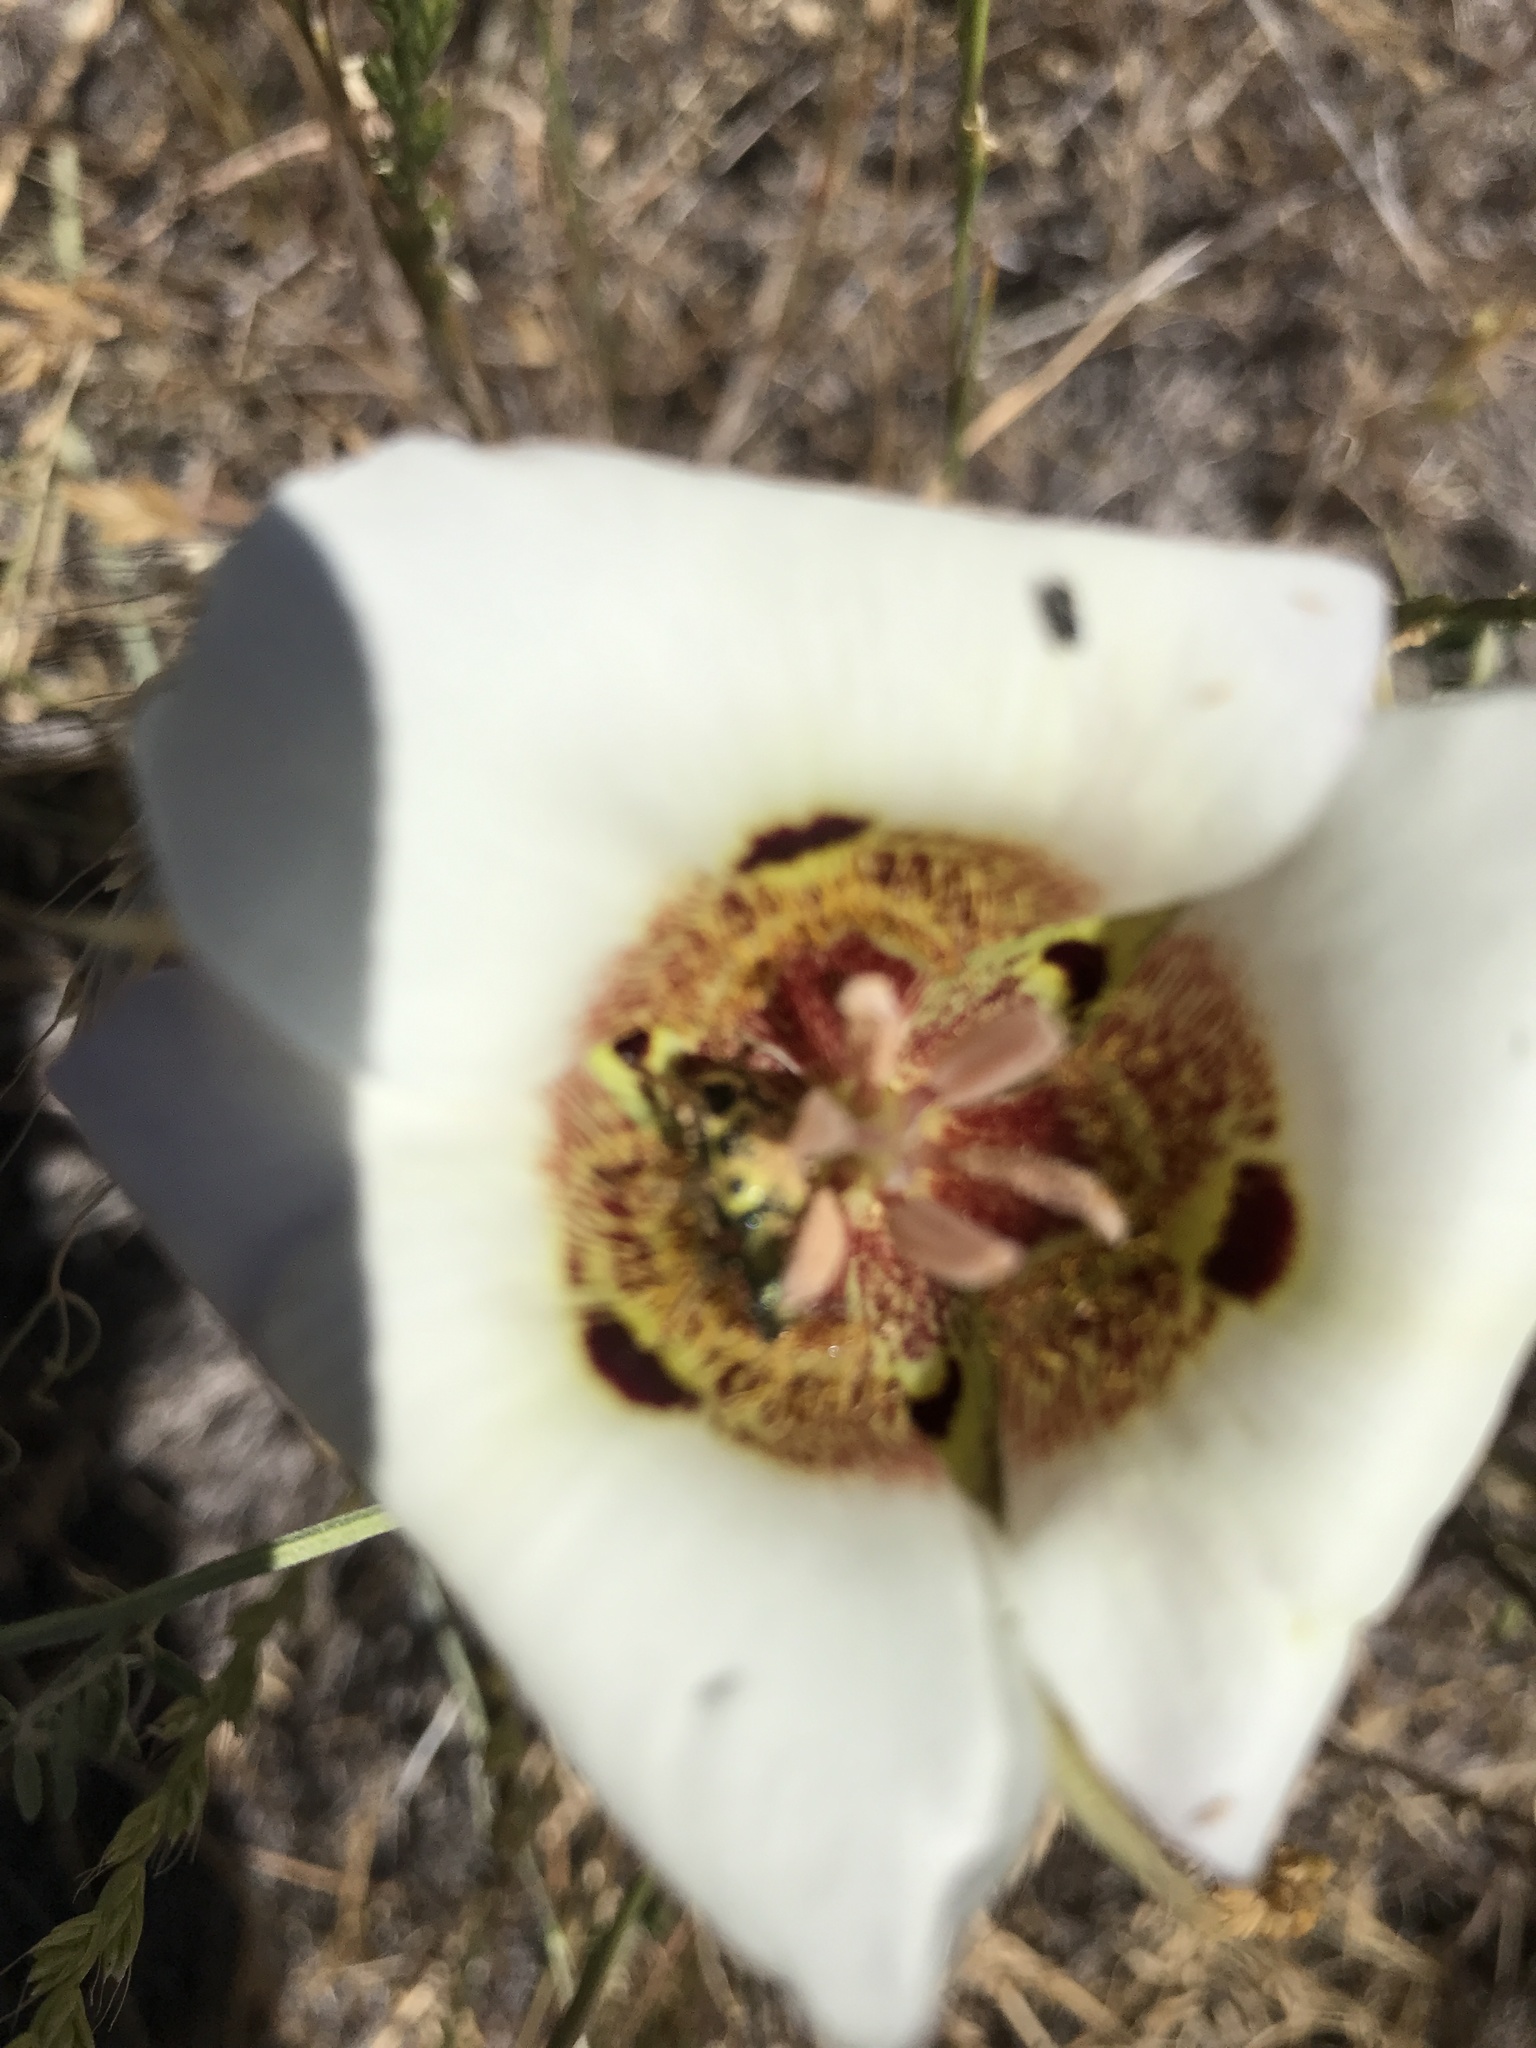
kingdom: Animalia
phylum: Arthropoda
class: Insecta
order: Coleoptera
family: Cleridae
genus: Trichodes
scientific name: Trichodes ornatus
